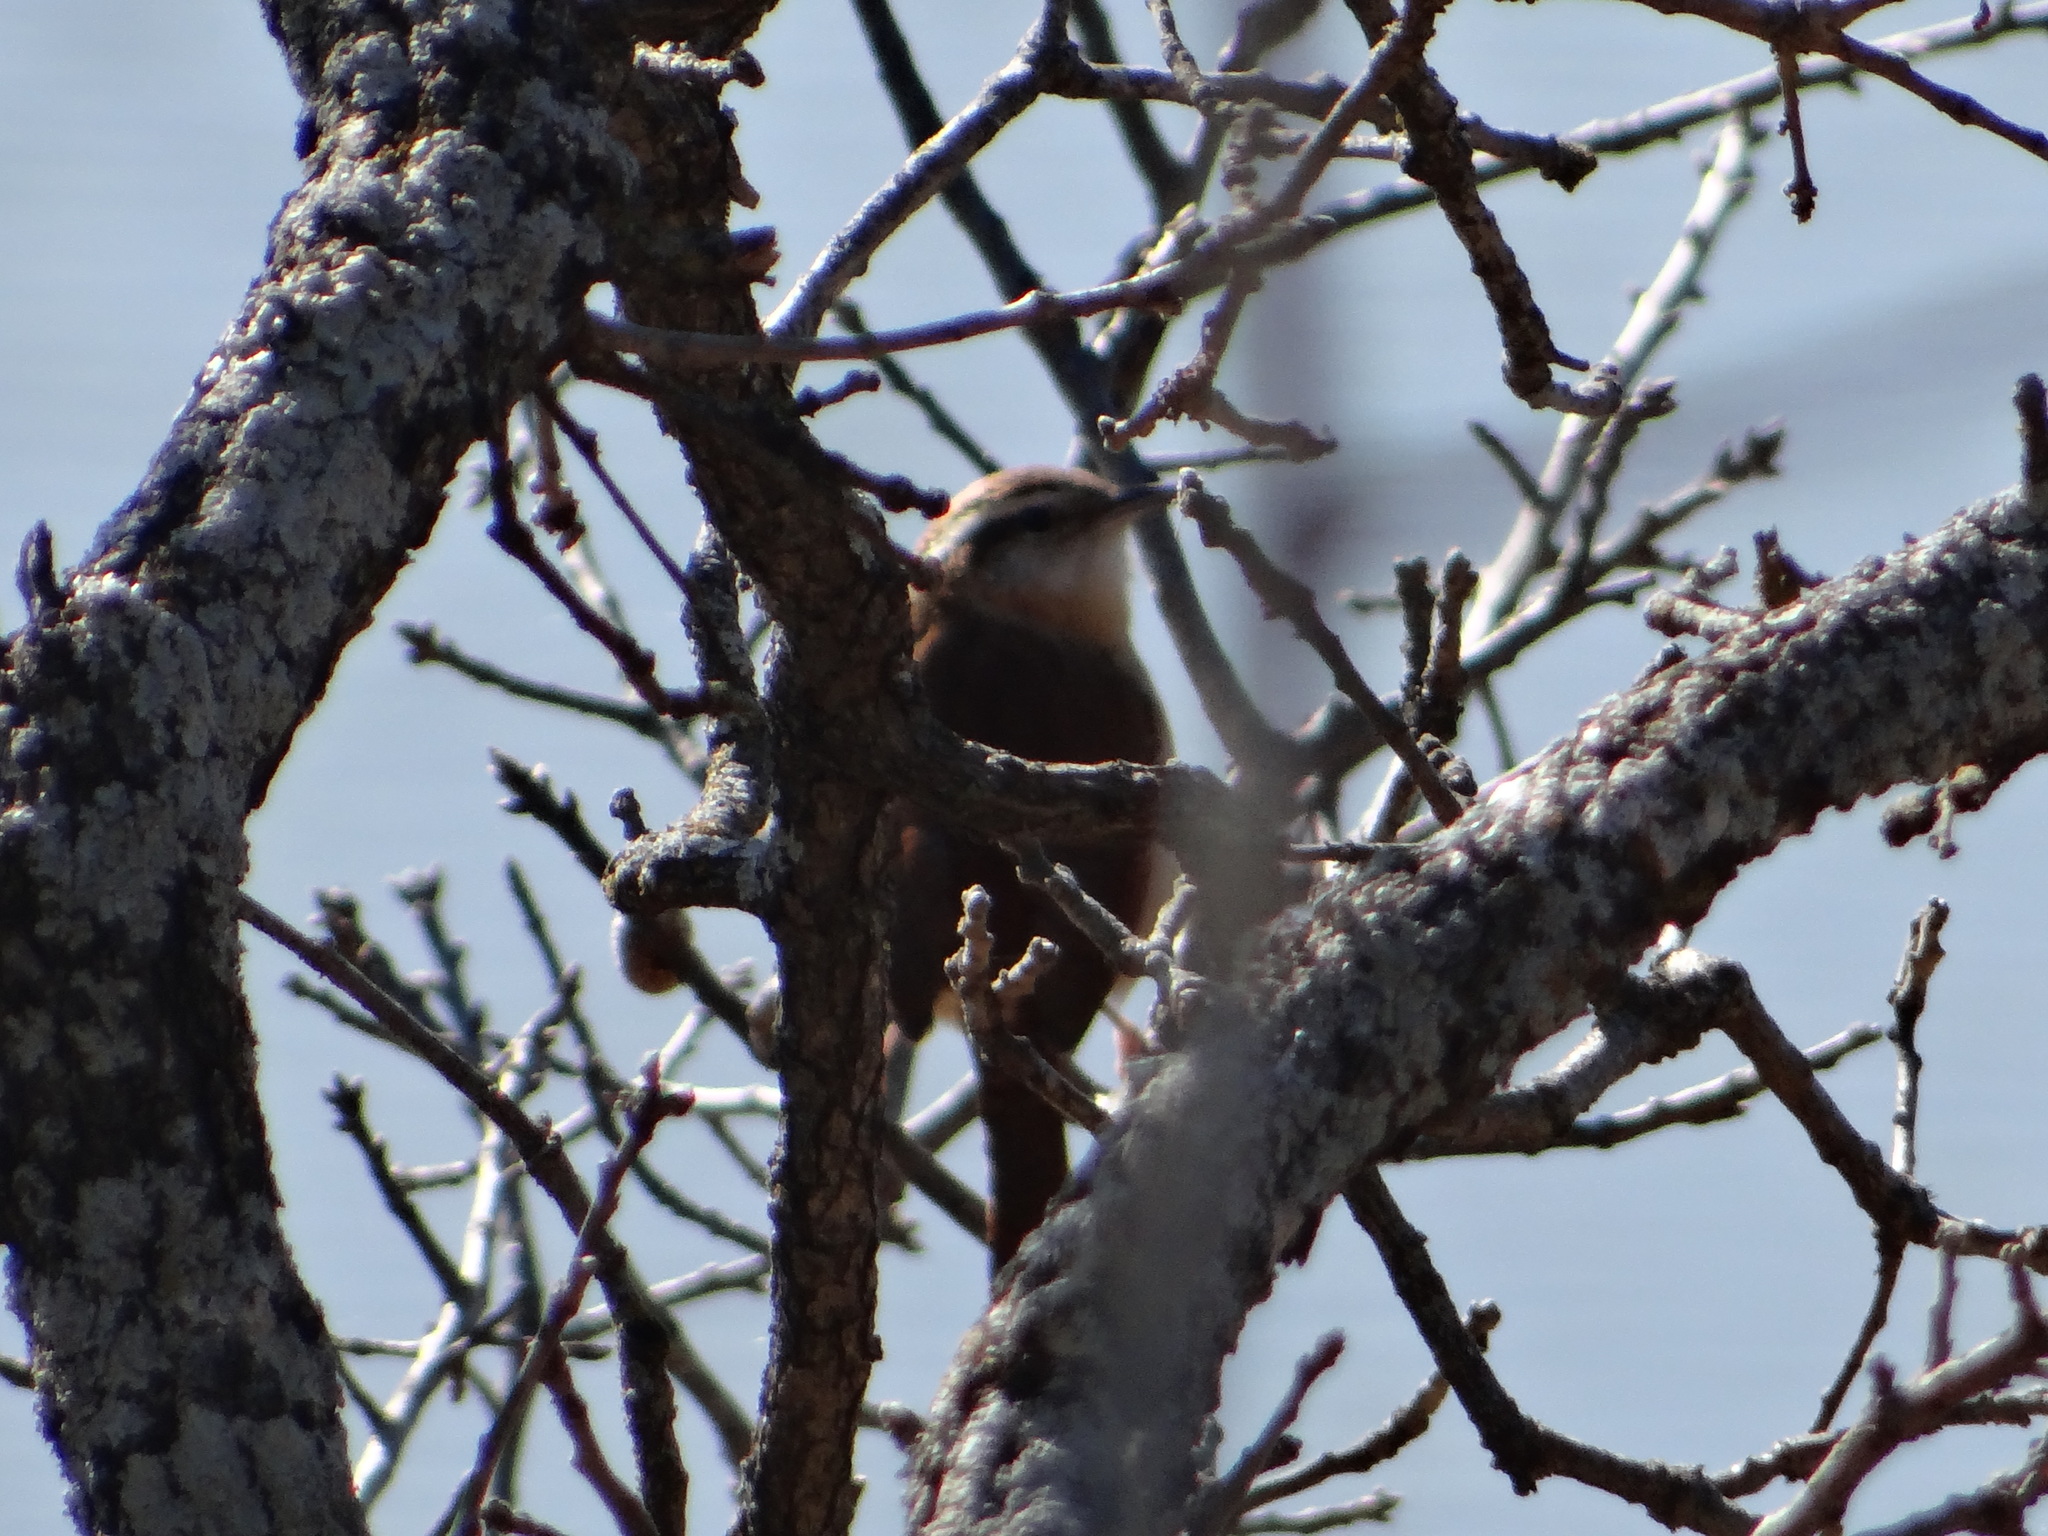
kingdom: Animalia
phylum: Chordata
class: Aves
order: Passeriformes
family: Troglodytidae
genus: Thryothorus
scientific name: Thryothorus ludovicianus
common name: Carolina wren
